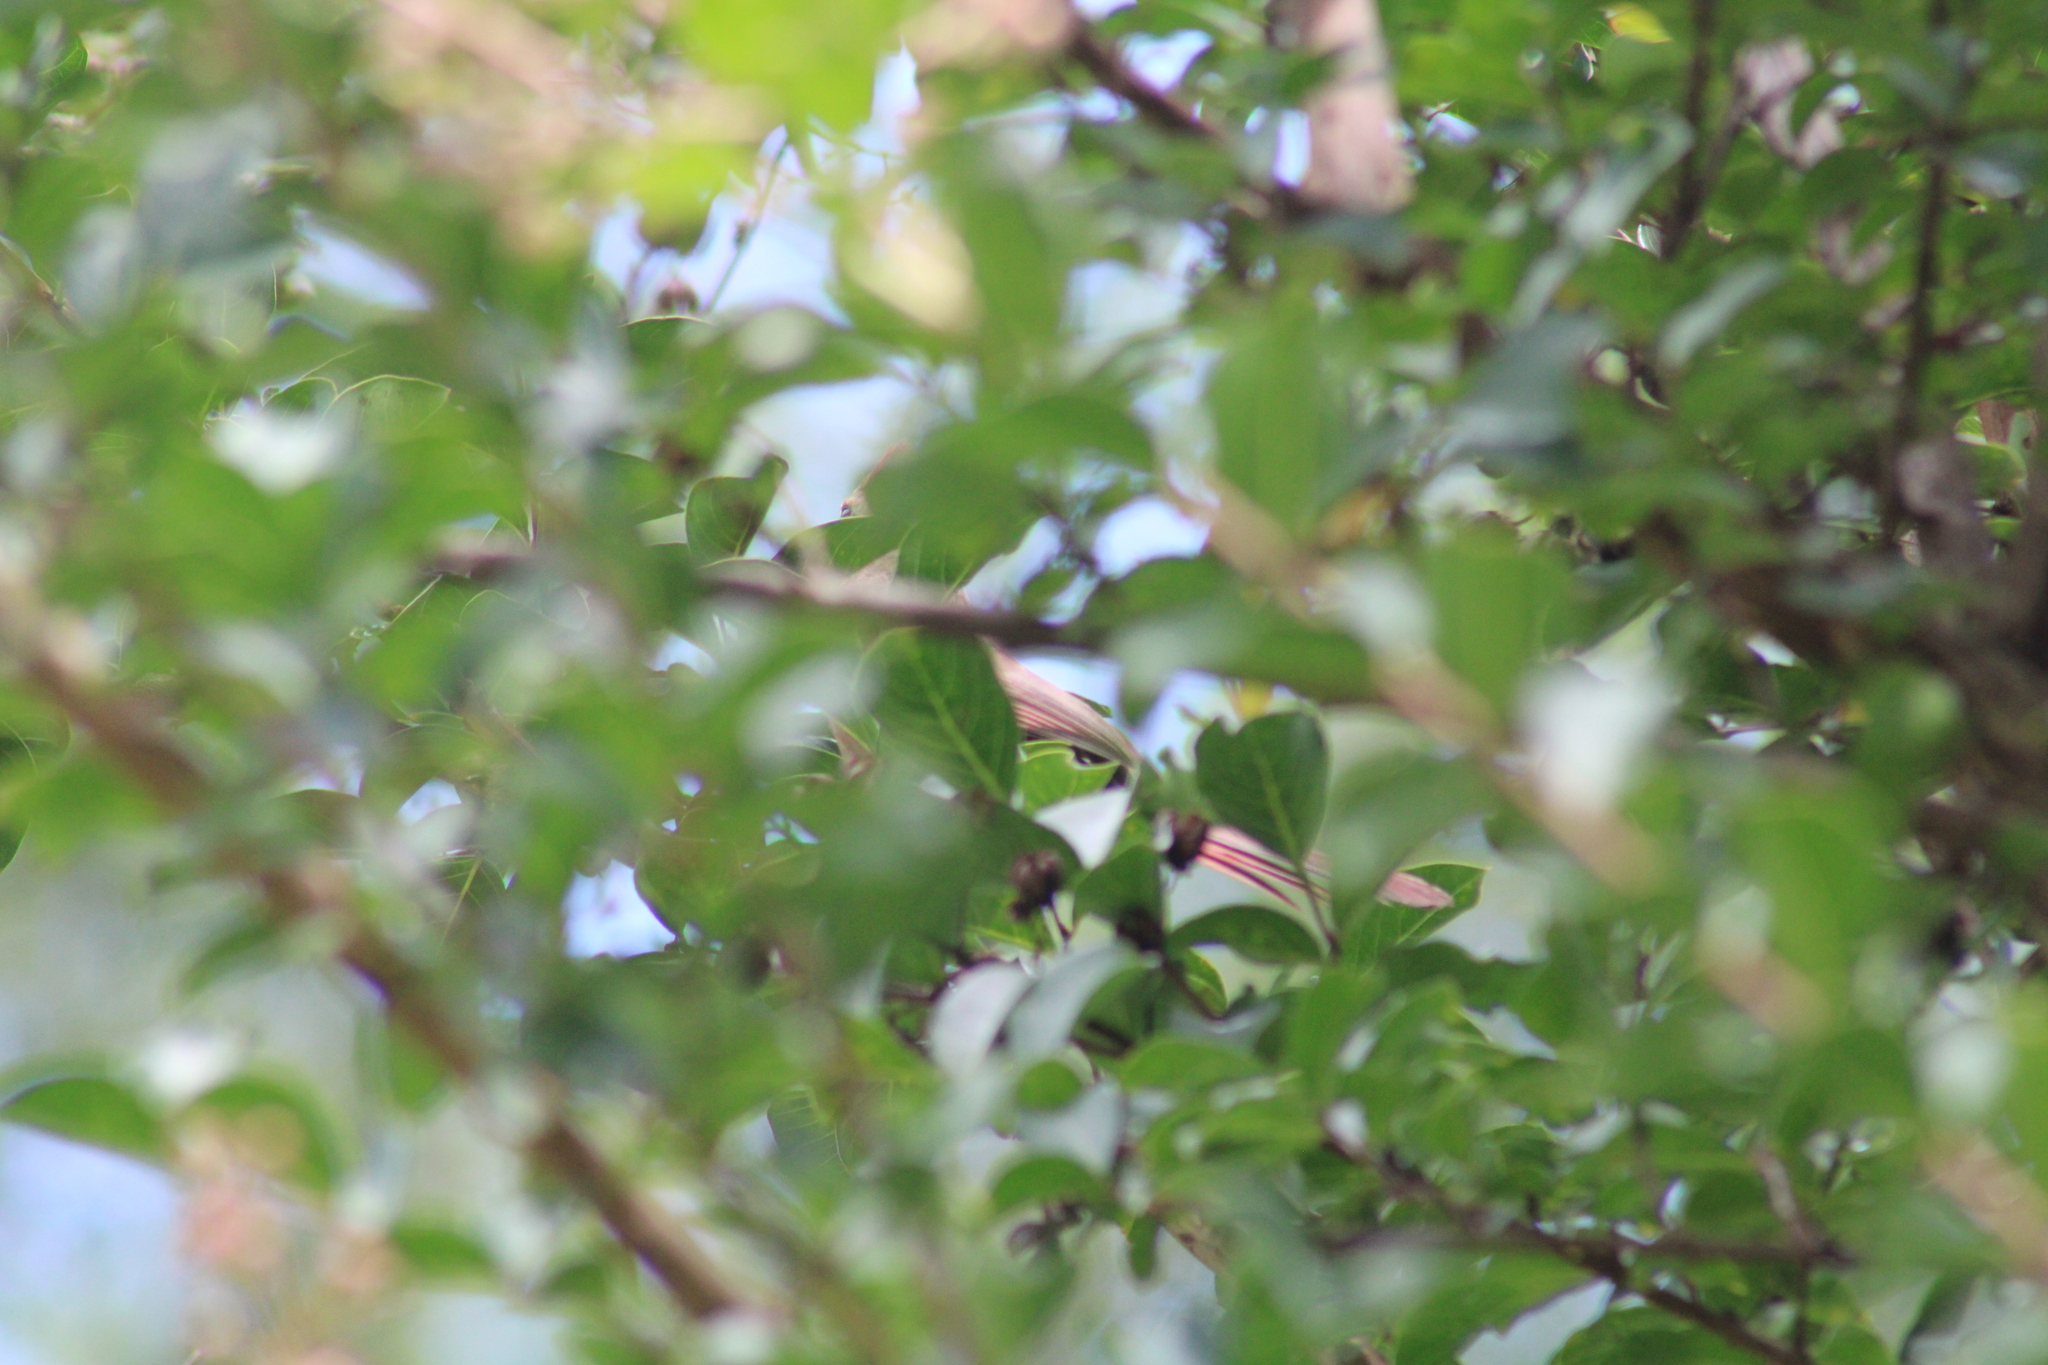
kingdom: Animalia
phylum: Chordata
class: Aves
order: Passeriformes
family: Cardinalidae
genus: Cardinalis
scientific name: Cardinalis cardinalis
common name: Northern cardinal
